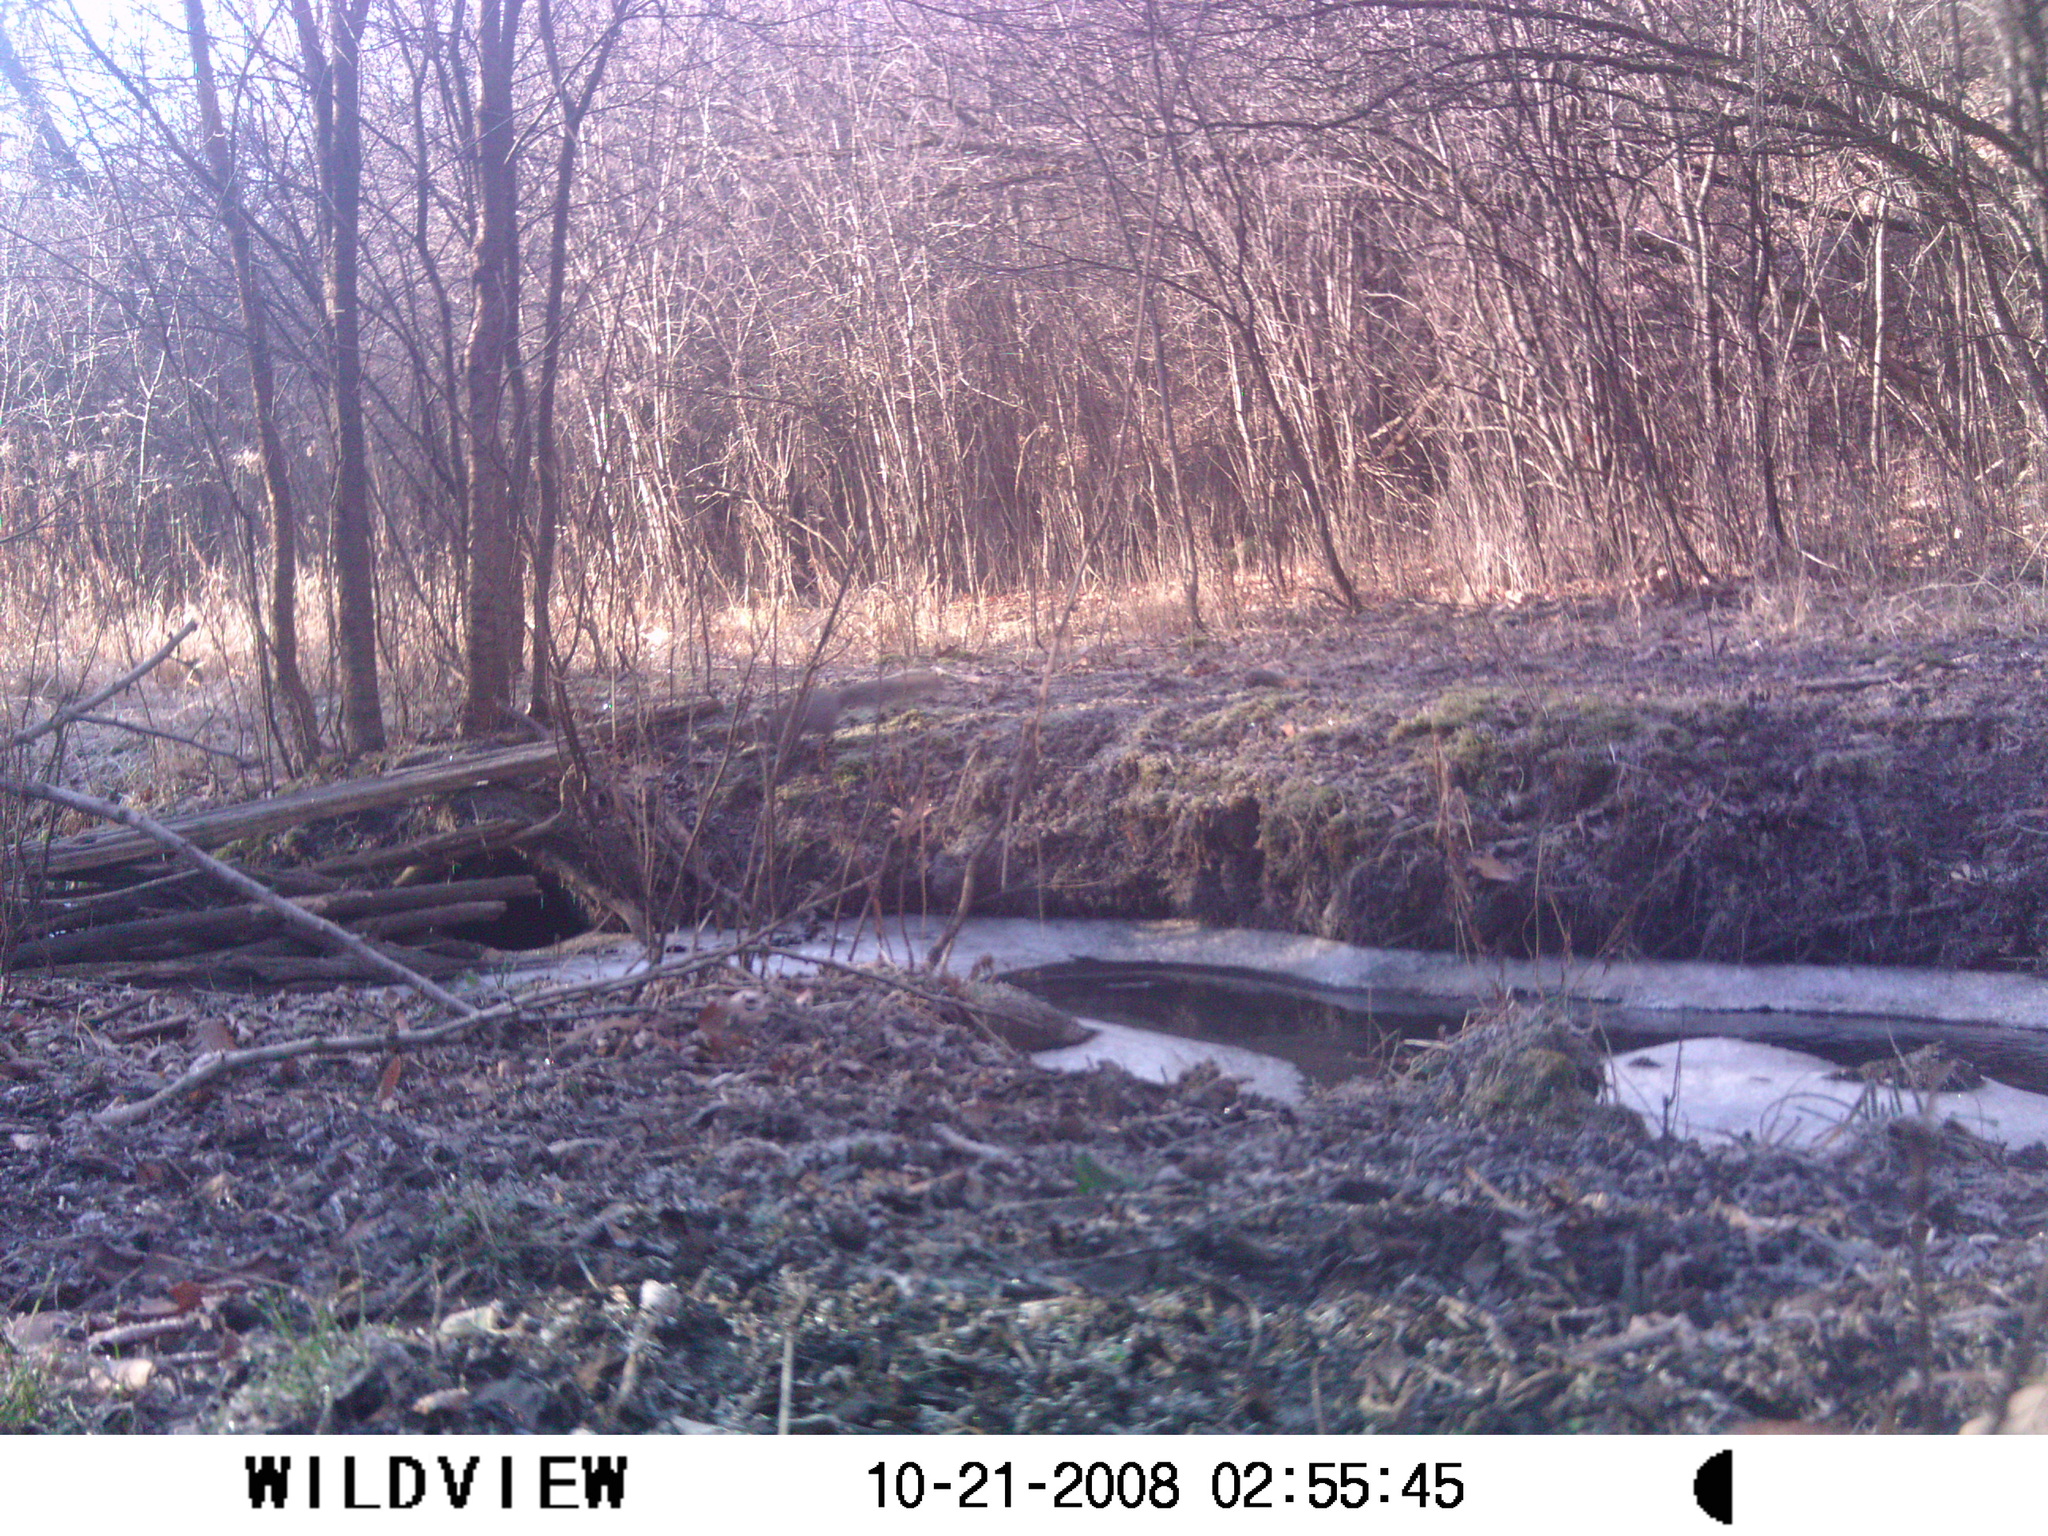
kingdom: Animalia
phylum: Chordata
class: Mammalia
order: Rodentia
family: Sciuridae
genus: Sciurus
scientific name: Sciurus carolinensis
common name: Eastern gray squirrel
